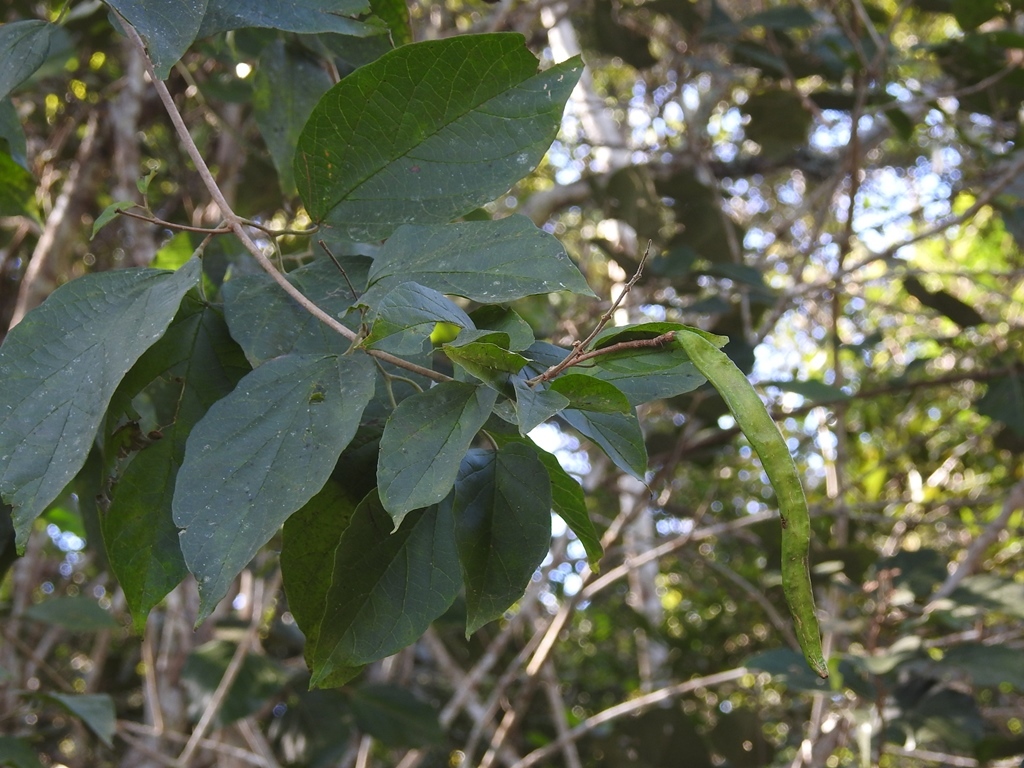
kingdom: Plantae
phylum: Tracheophyta
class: Magnoliopsida
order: Lamiales
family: Bignoniaceae
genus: Fridericia
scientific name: Fridericia chica
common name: Cricketvine
